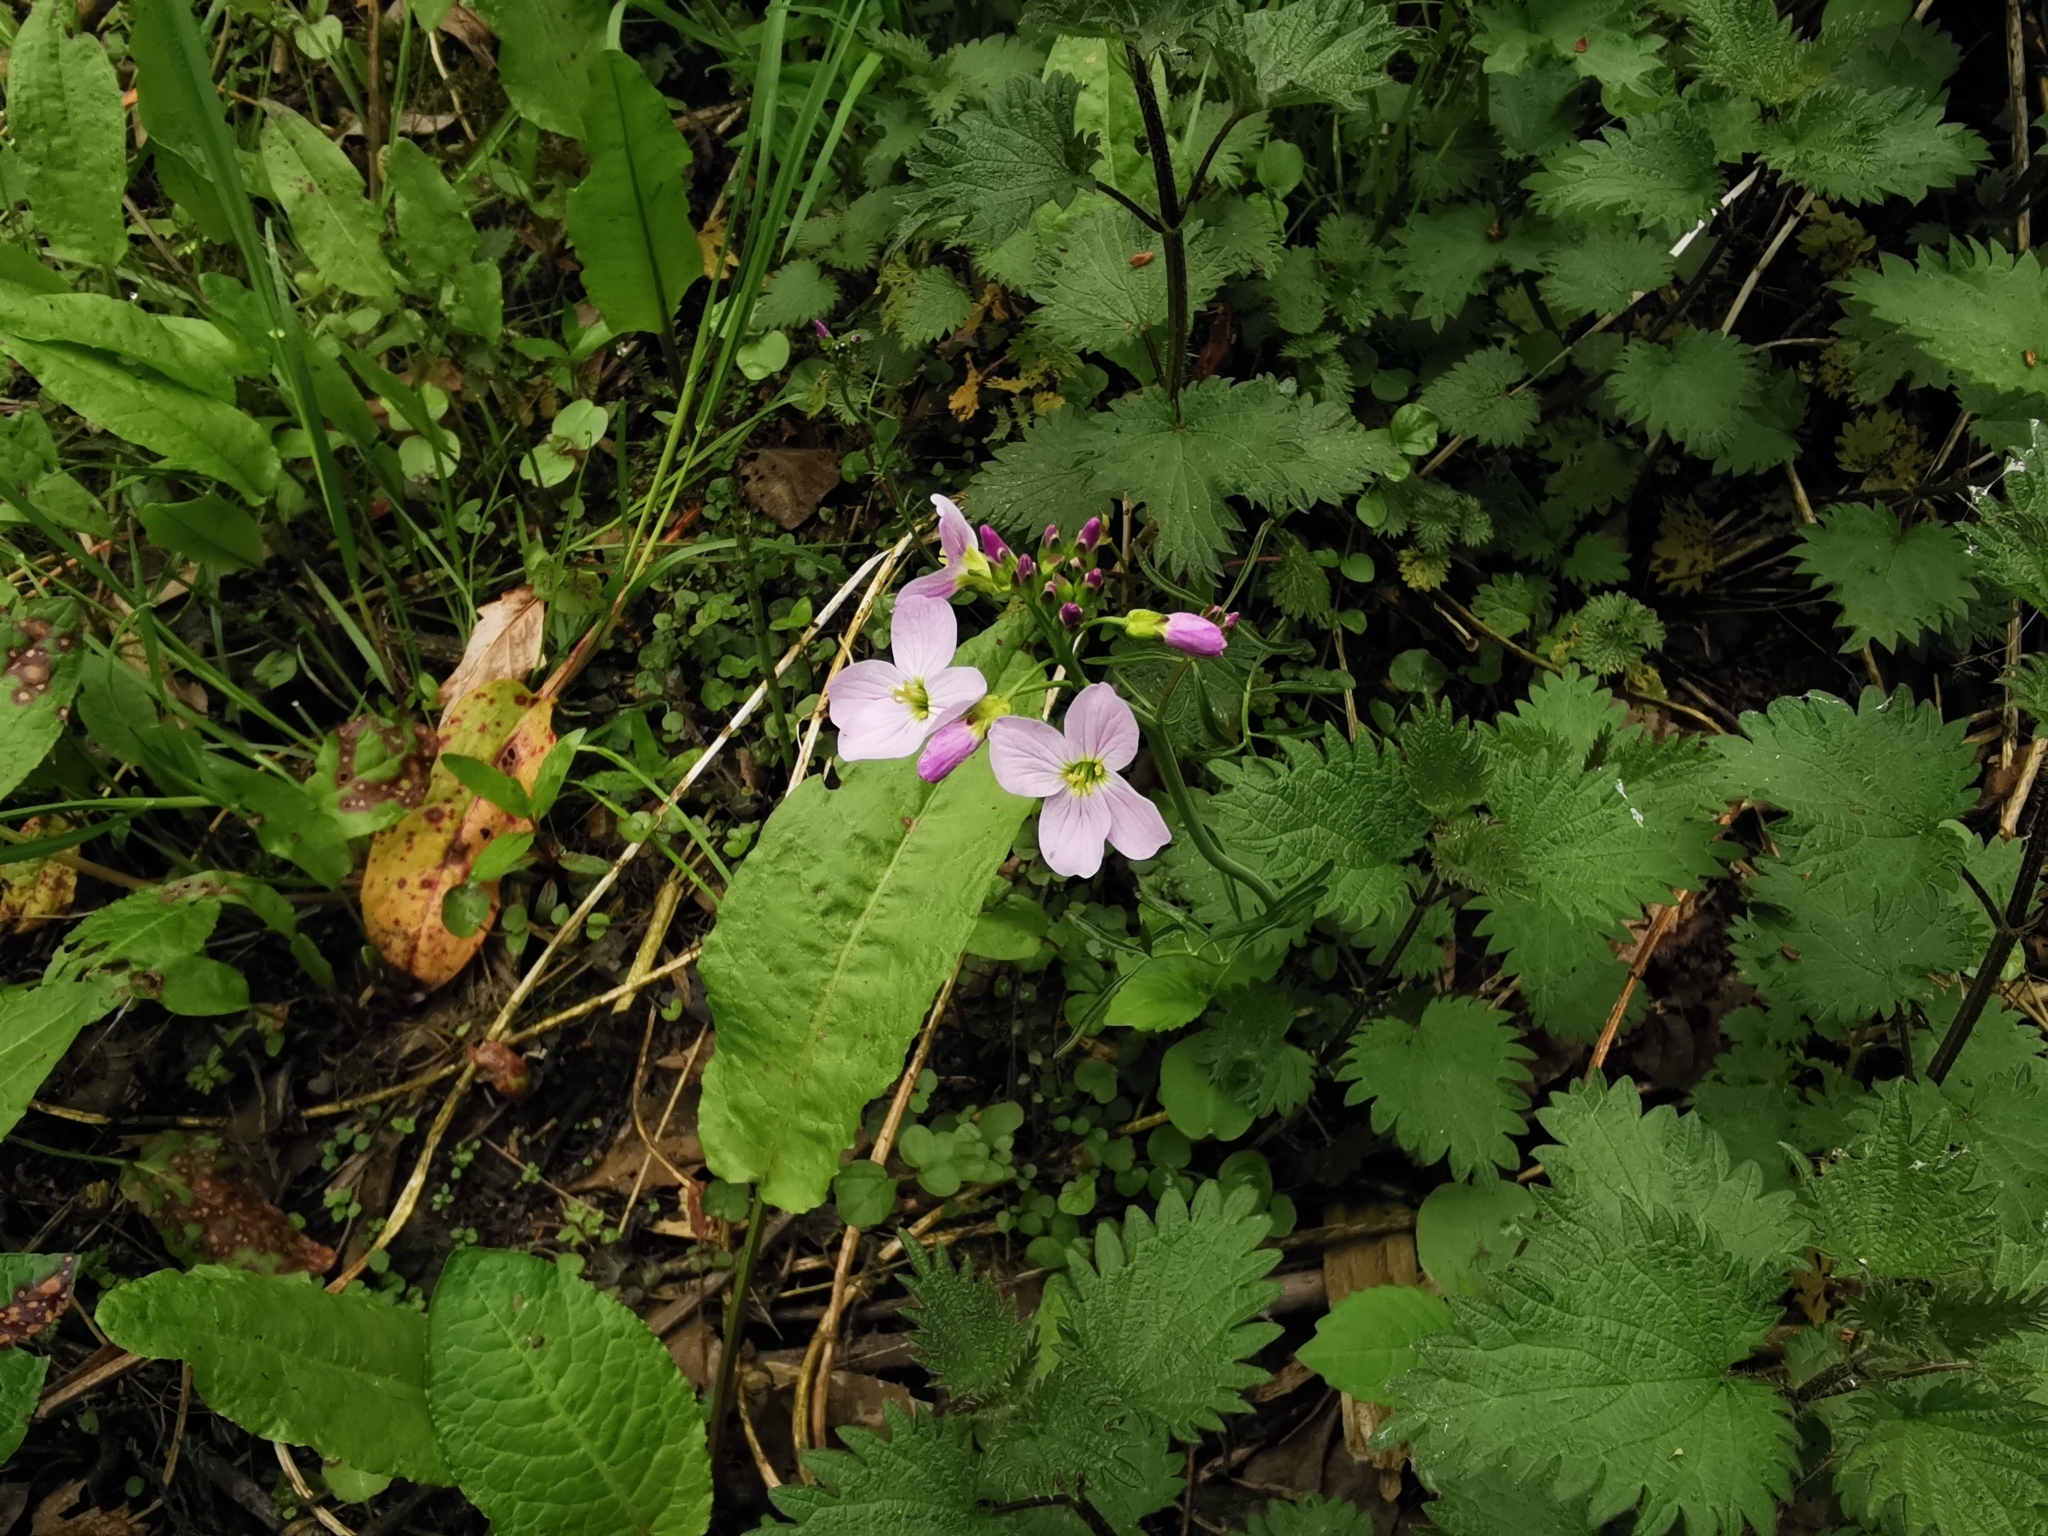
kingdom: Plantae
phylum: Tracheophyta
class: Magnoliopsida
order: Brassicales
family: Brassicaceae
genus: Cardamine
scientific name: Cardamine pratensis
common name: Cuckoo flower
